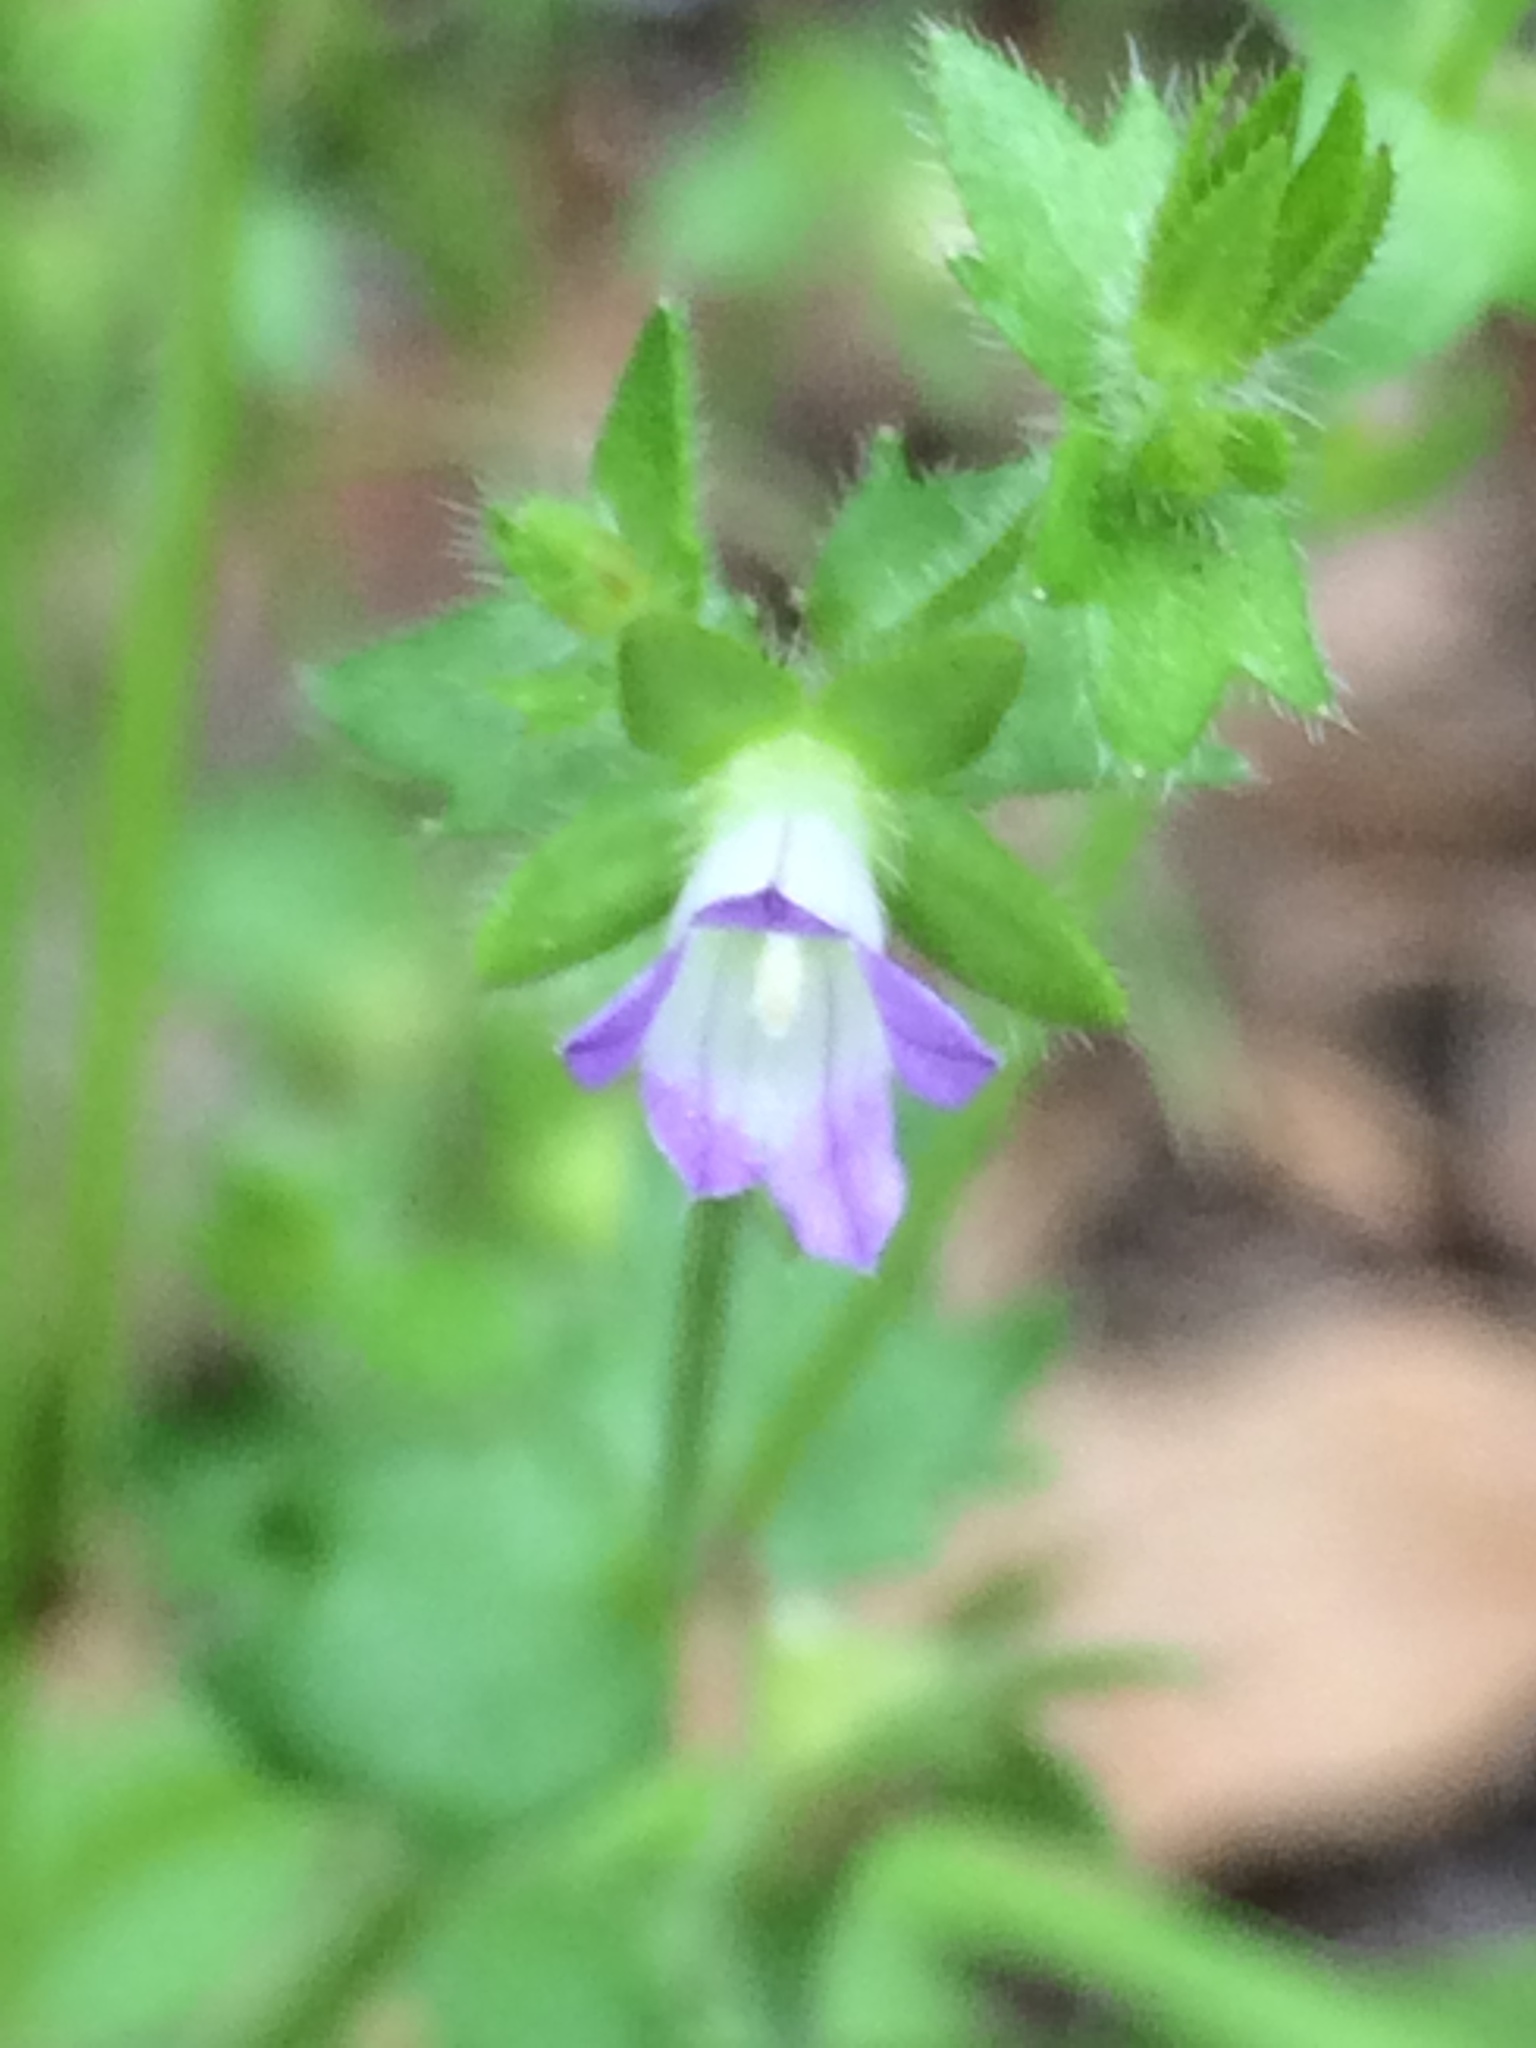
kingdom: Plantae
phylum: Tracheophyta
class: Magnoliopsida
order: Asterales
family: Campanulaceae
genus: Campanula
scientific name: Campanula erinus
